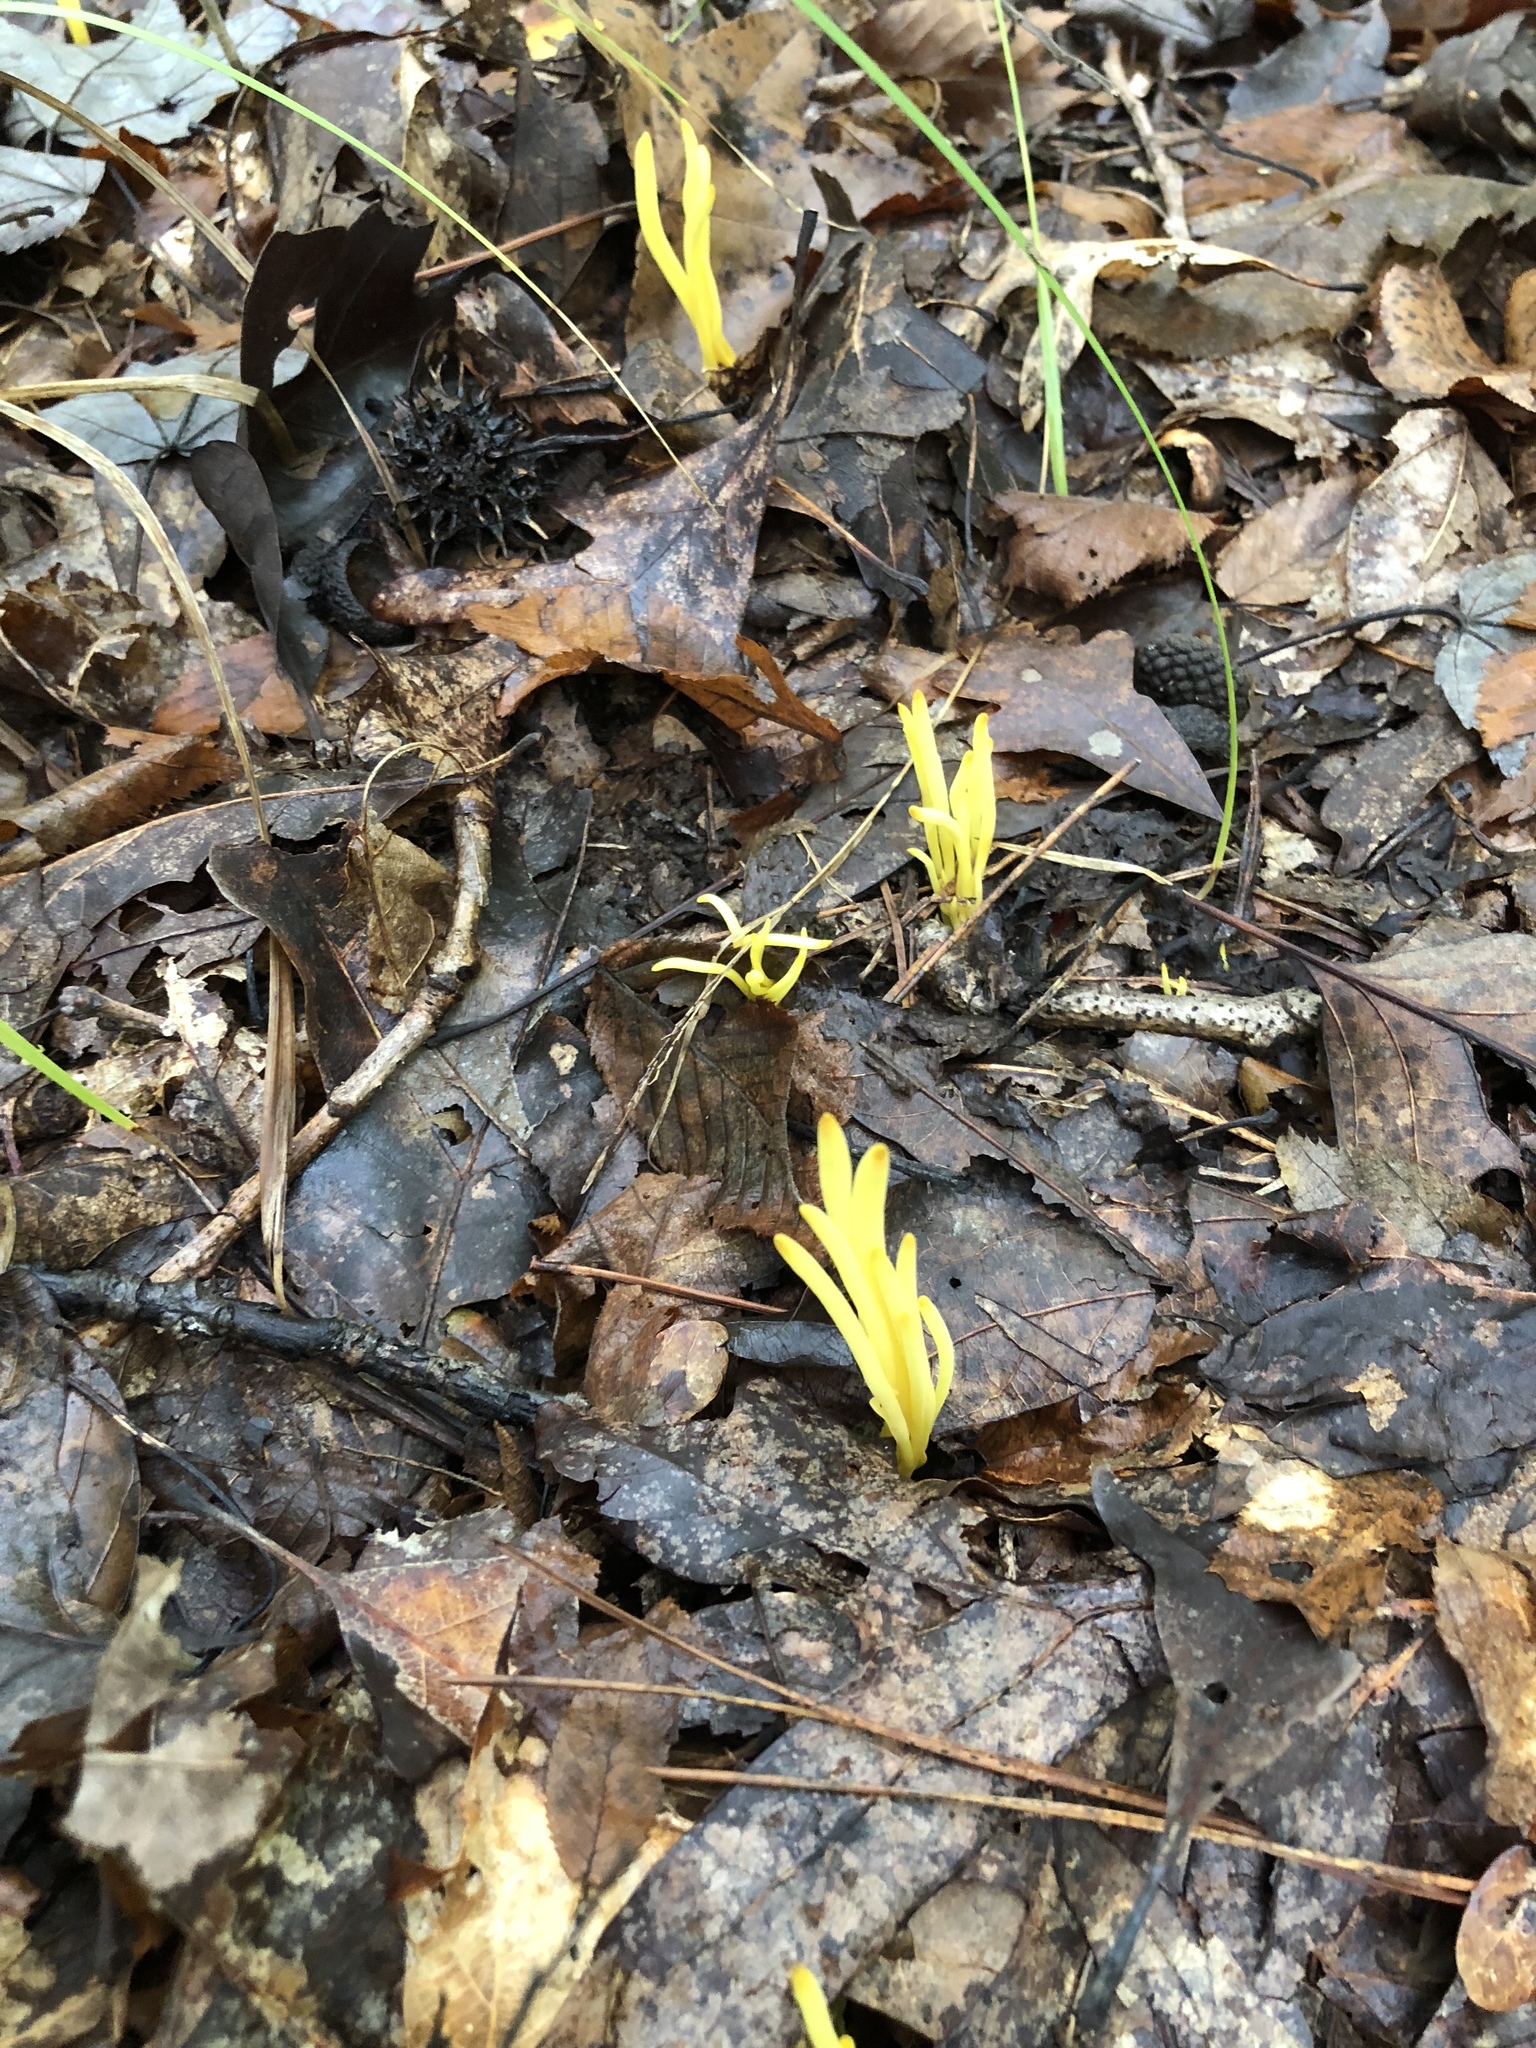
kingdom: Fungi
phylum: Basidiomycota
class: Agaricomycetes
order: Agaricales
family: Clavariaceae
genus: Clavulinopsis
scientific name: Clavulinopsis fusiformis
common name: Golden spindles
